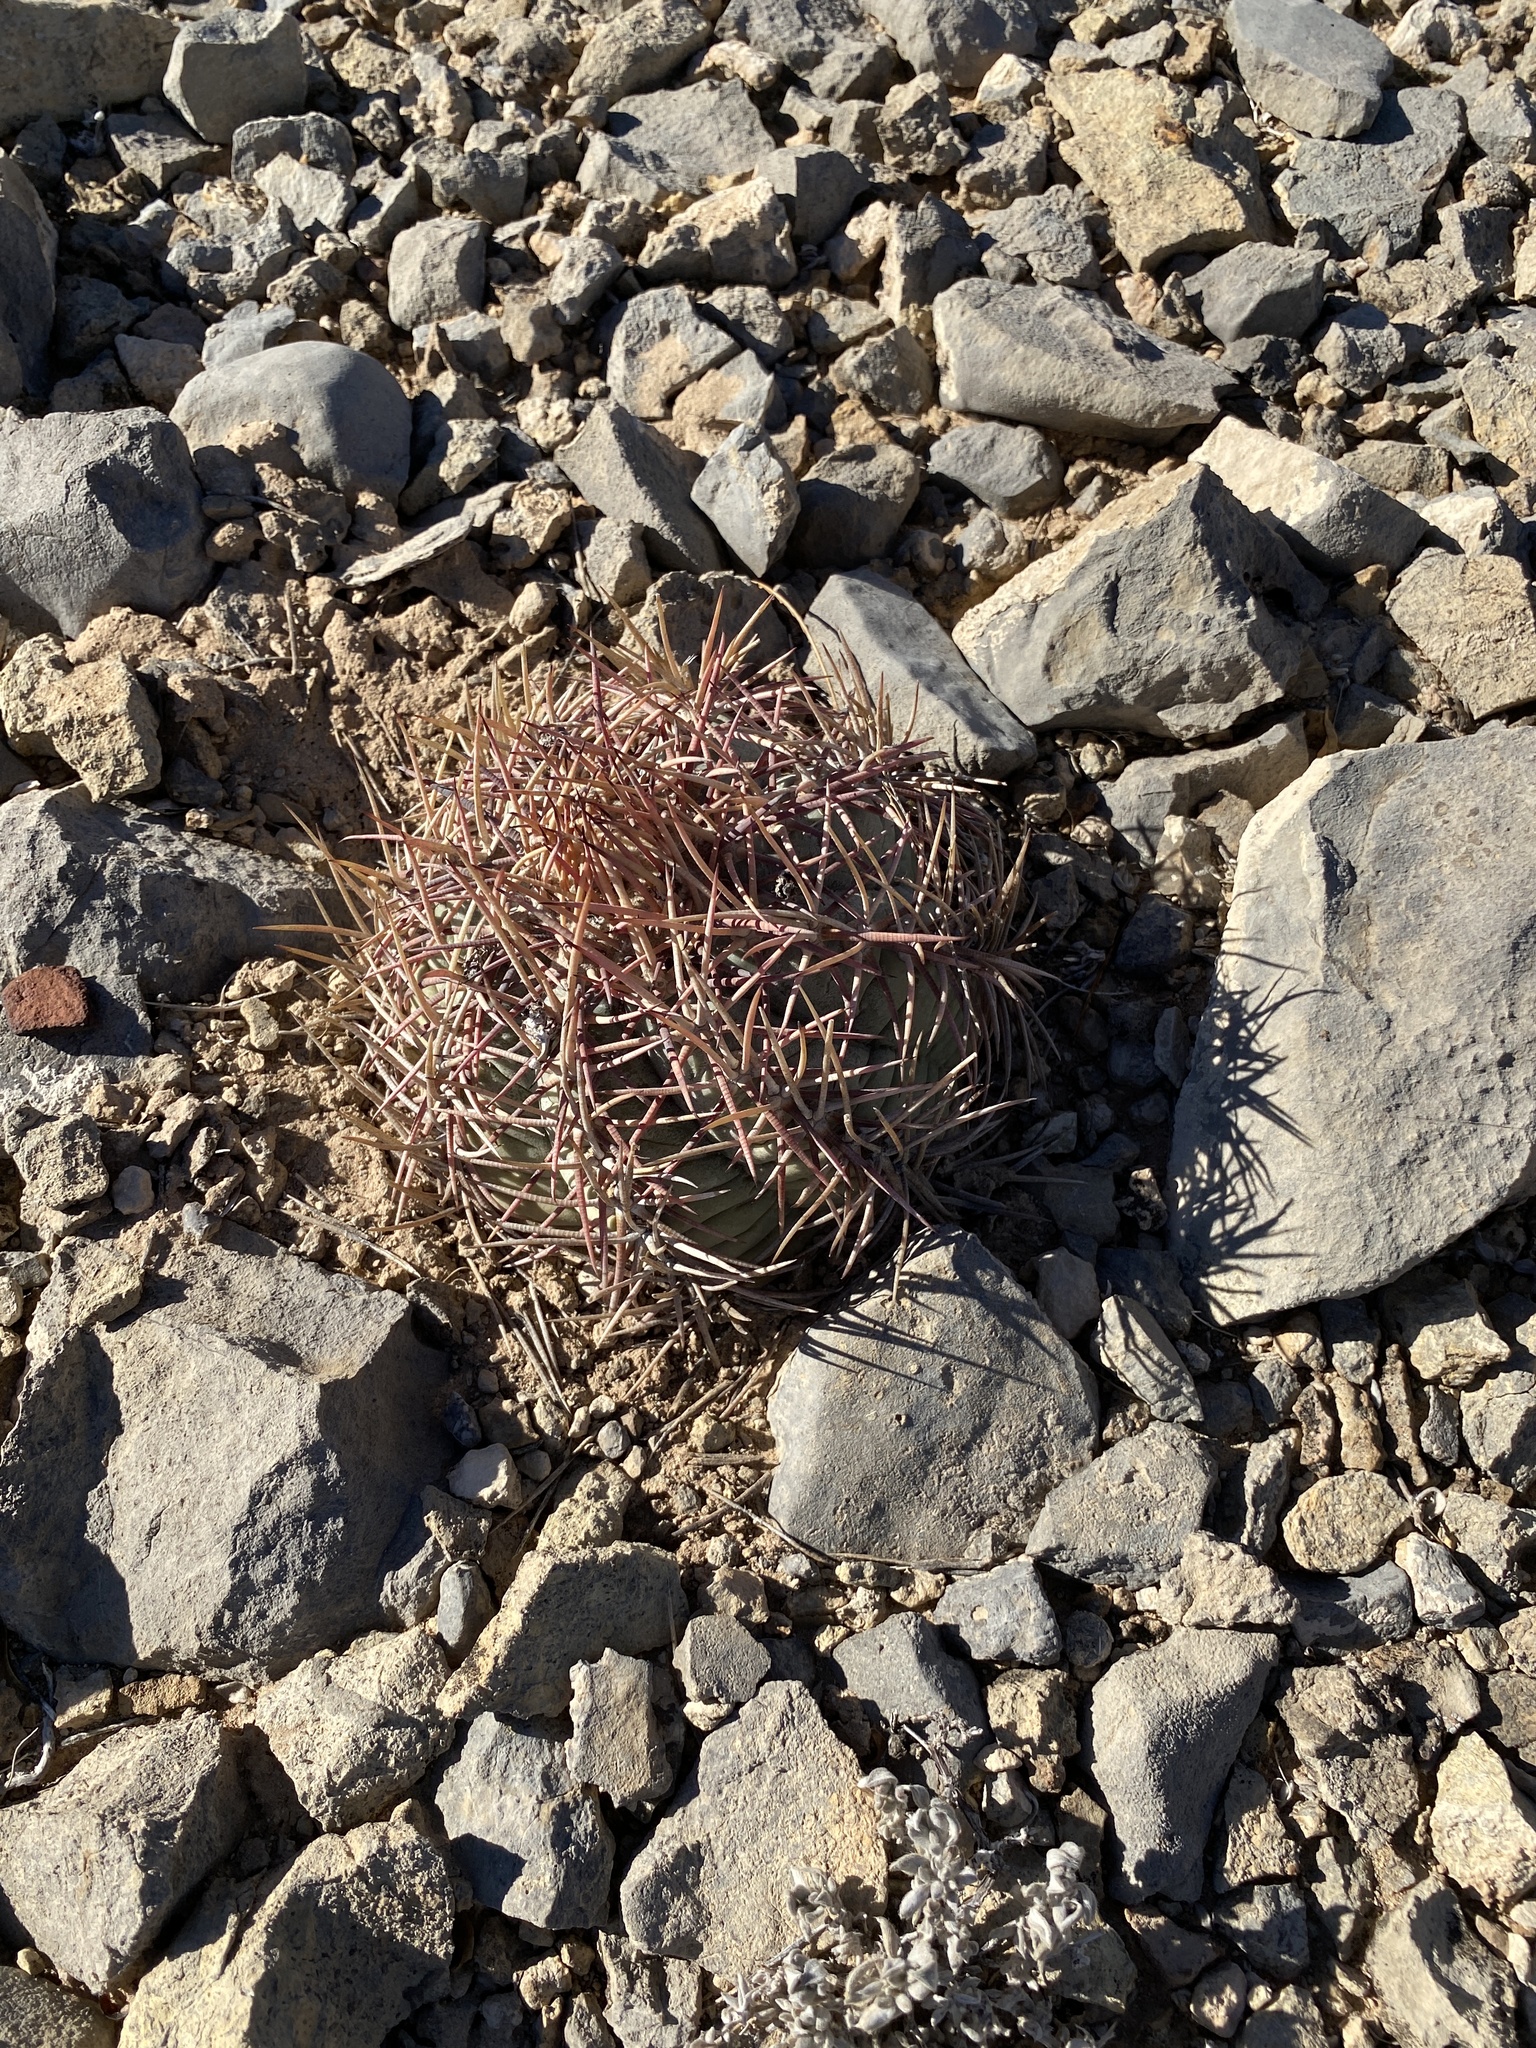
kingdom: Plantae
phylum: Tracheophyta
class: Magnoliopsida
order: Caryophyllales
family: Cactaceae
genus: Echinocactus
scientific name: Echinocactus horizonthalonius
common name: Devilshead
